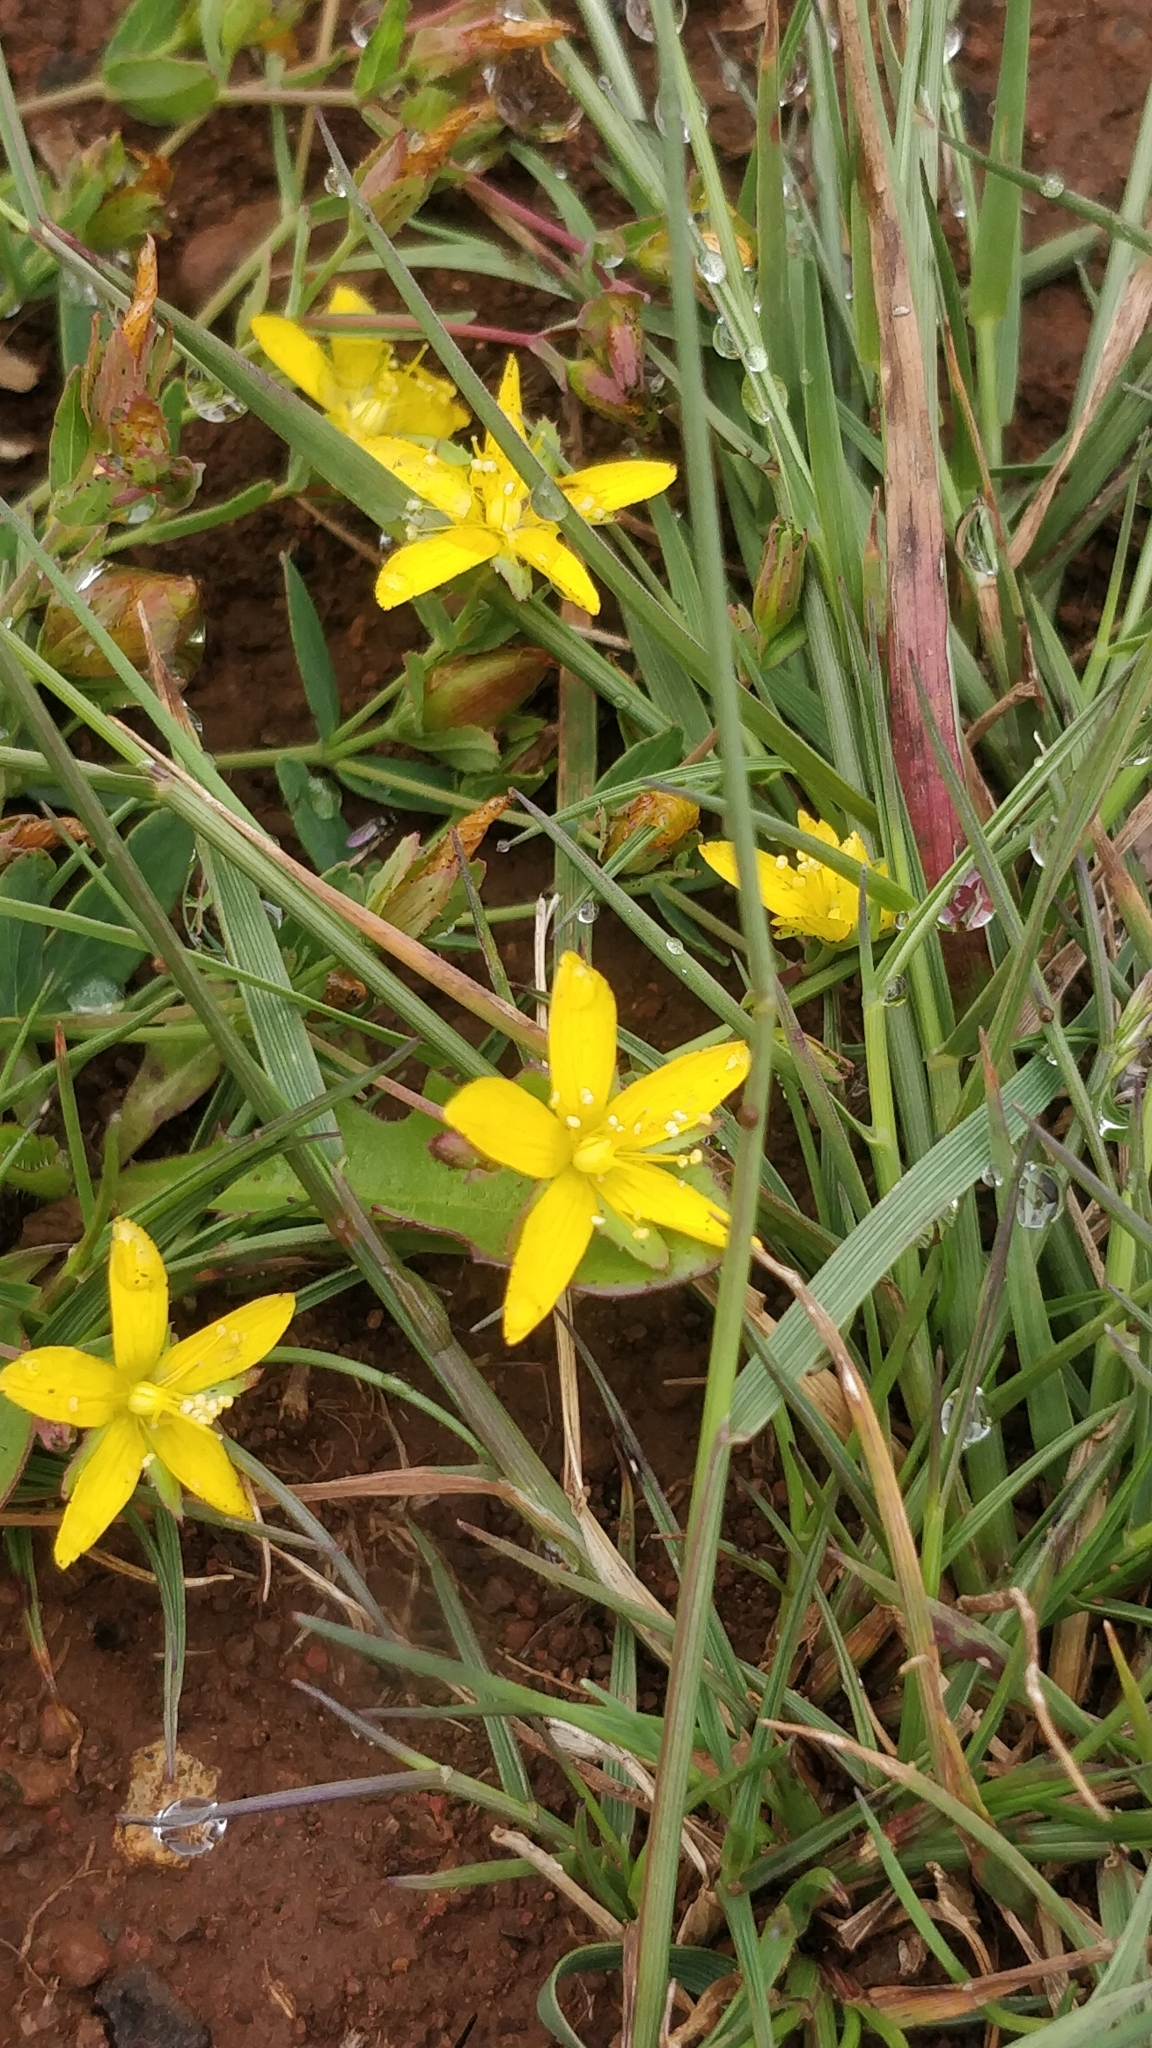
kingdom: Plantae
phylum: Tracheophyta
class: Magnoliopsida
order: Malpighiales
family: Hypericaceae
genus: Hypericum
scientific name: Hypericum humifusum
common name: Trailing st. john's-wort
